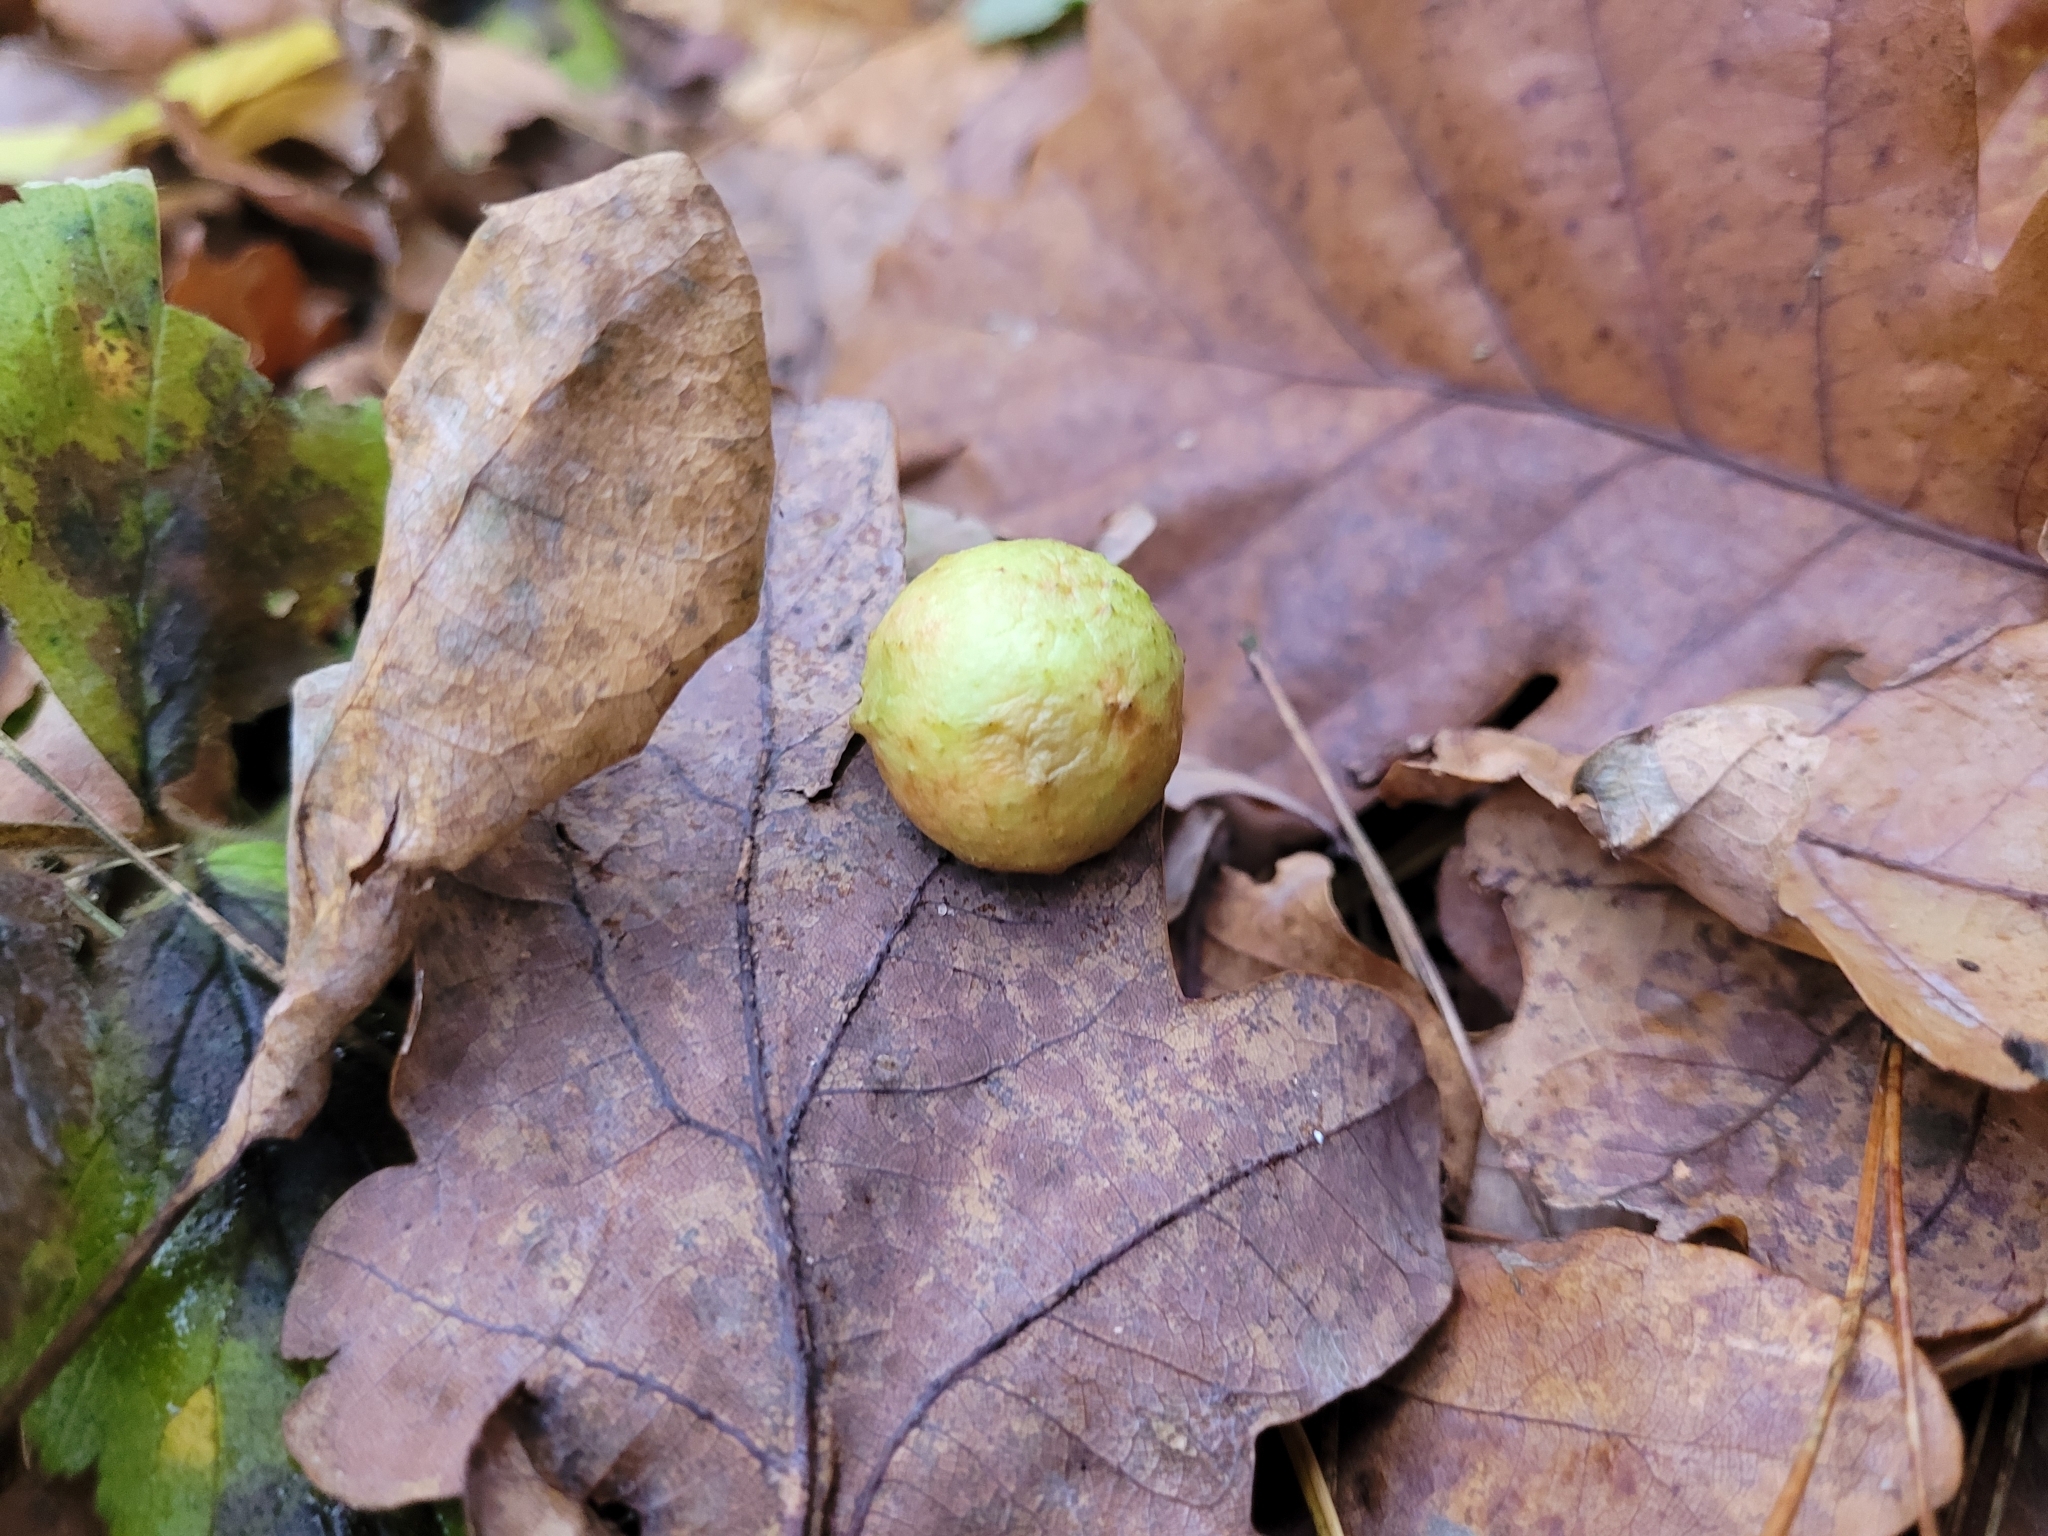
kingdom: Animalia
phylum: Arthropoda
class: Insecta
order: Hymenoptera
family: Cynipidae
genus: Cynips
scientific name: Cynips quercusfolii
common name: Cherry gall
